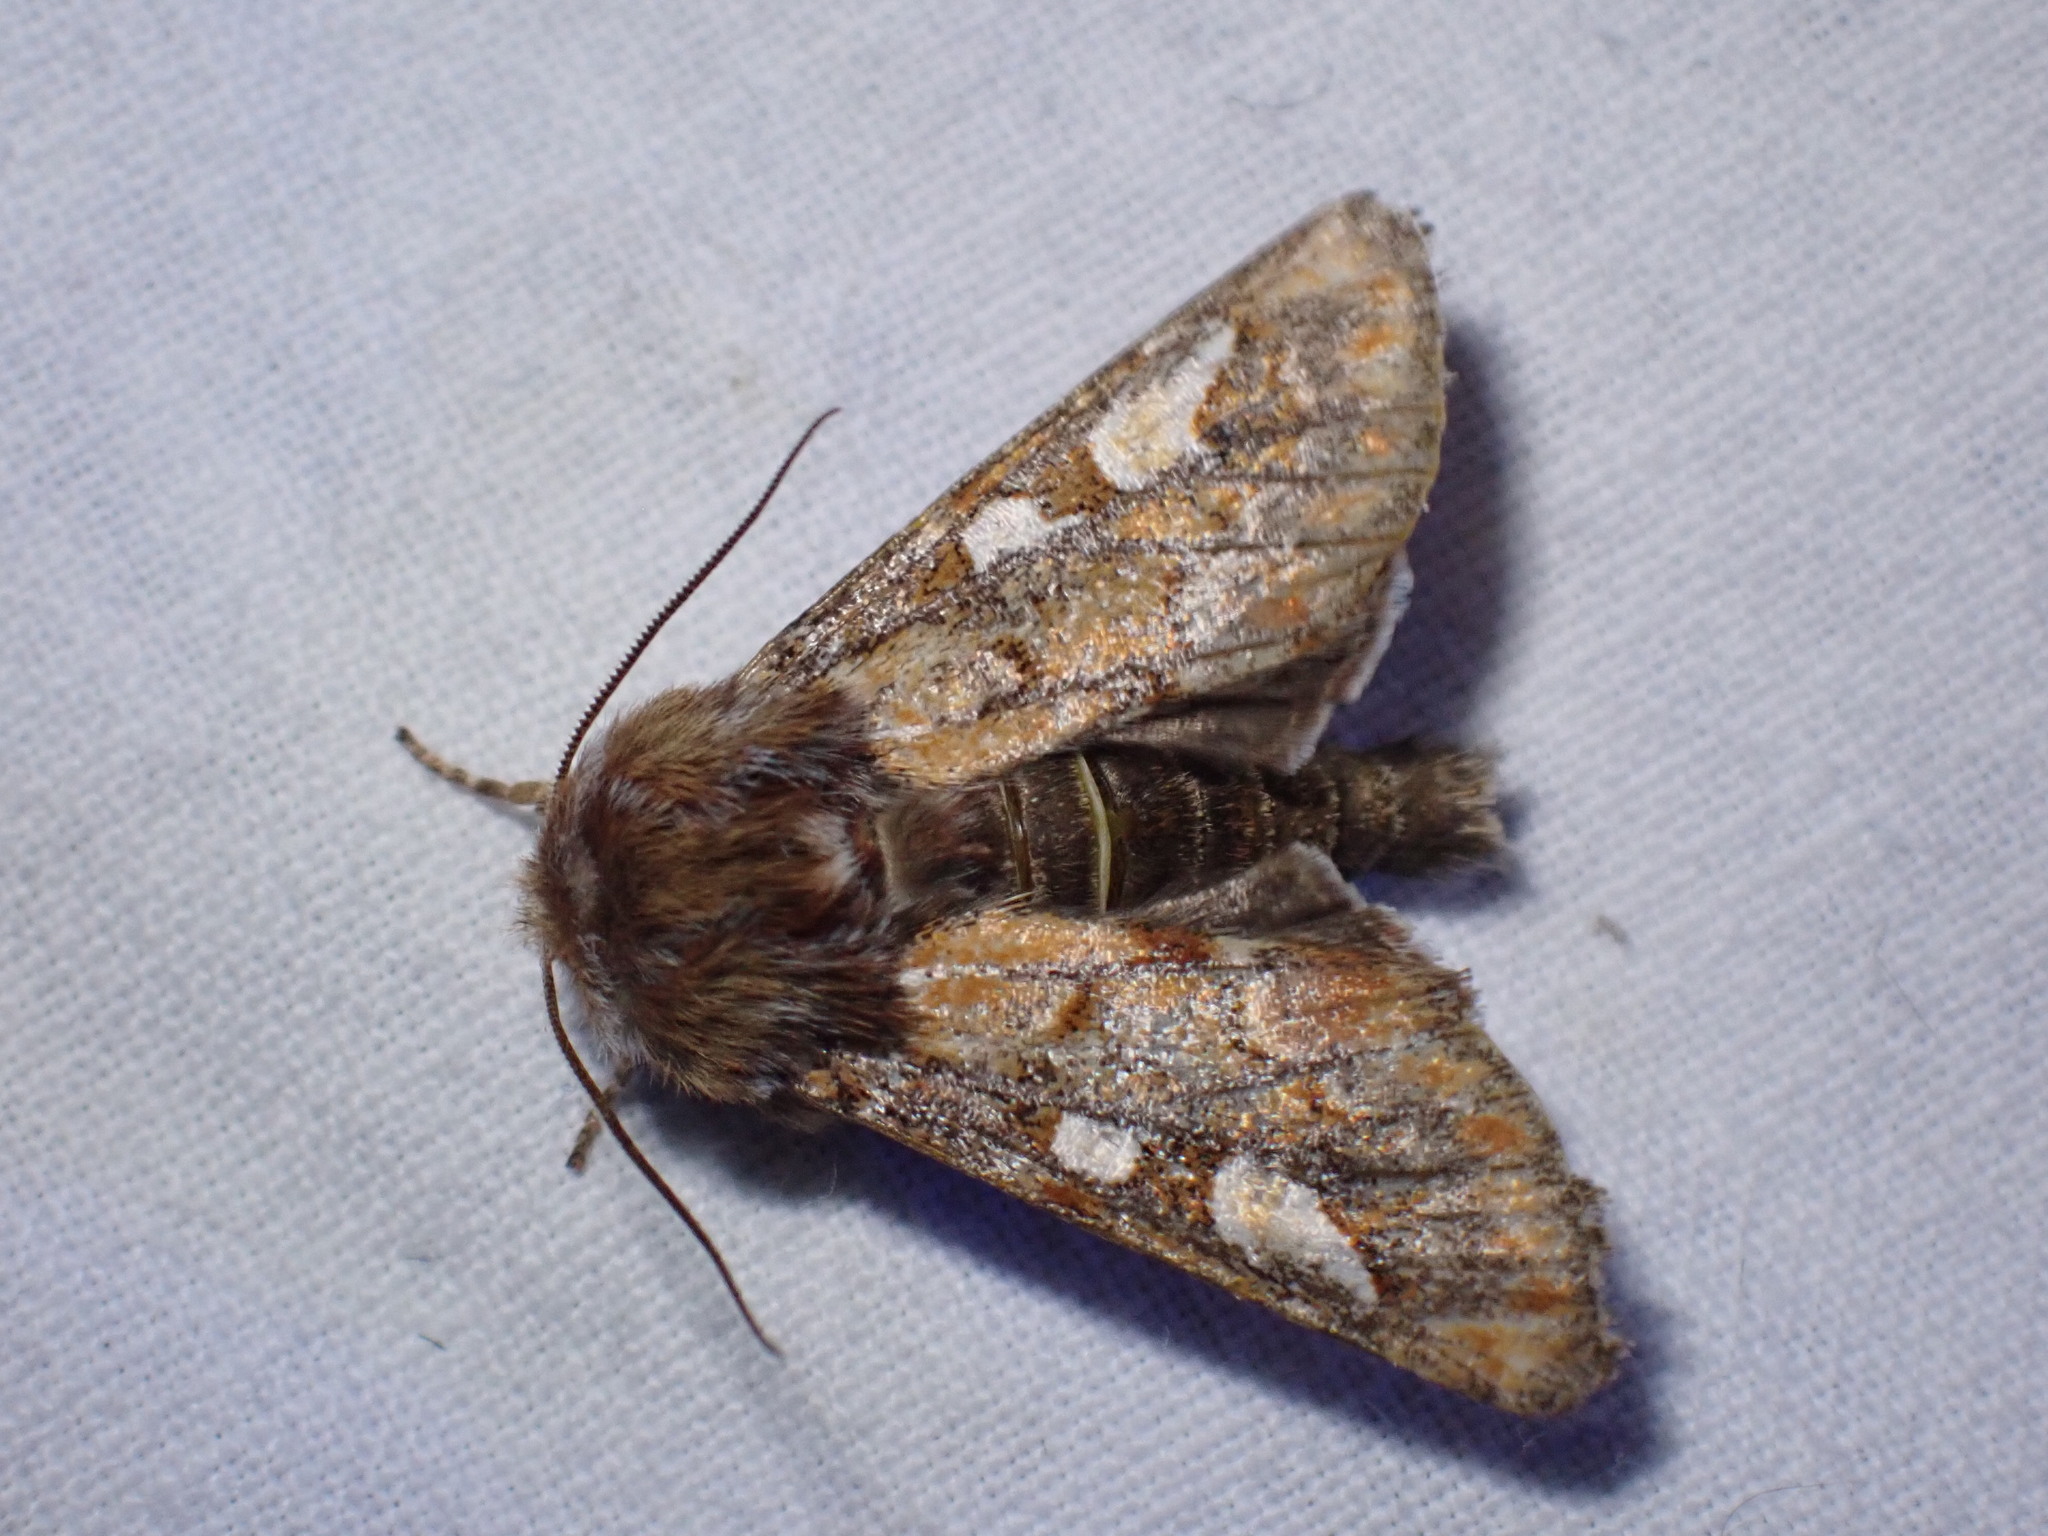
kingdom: Animalia
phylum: Arthropoda
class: Insecta
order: Lepidoptera
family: Noctuidae
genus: Panolis
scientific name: Panolis flammea
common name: Pine beauty
